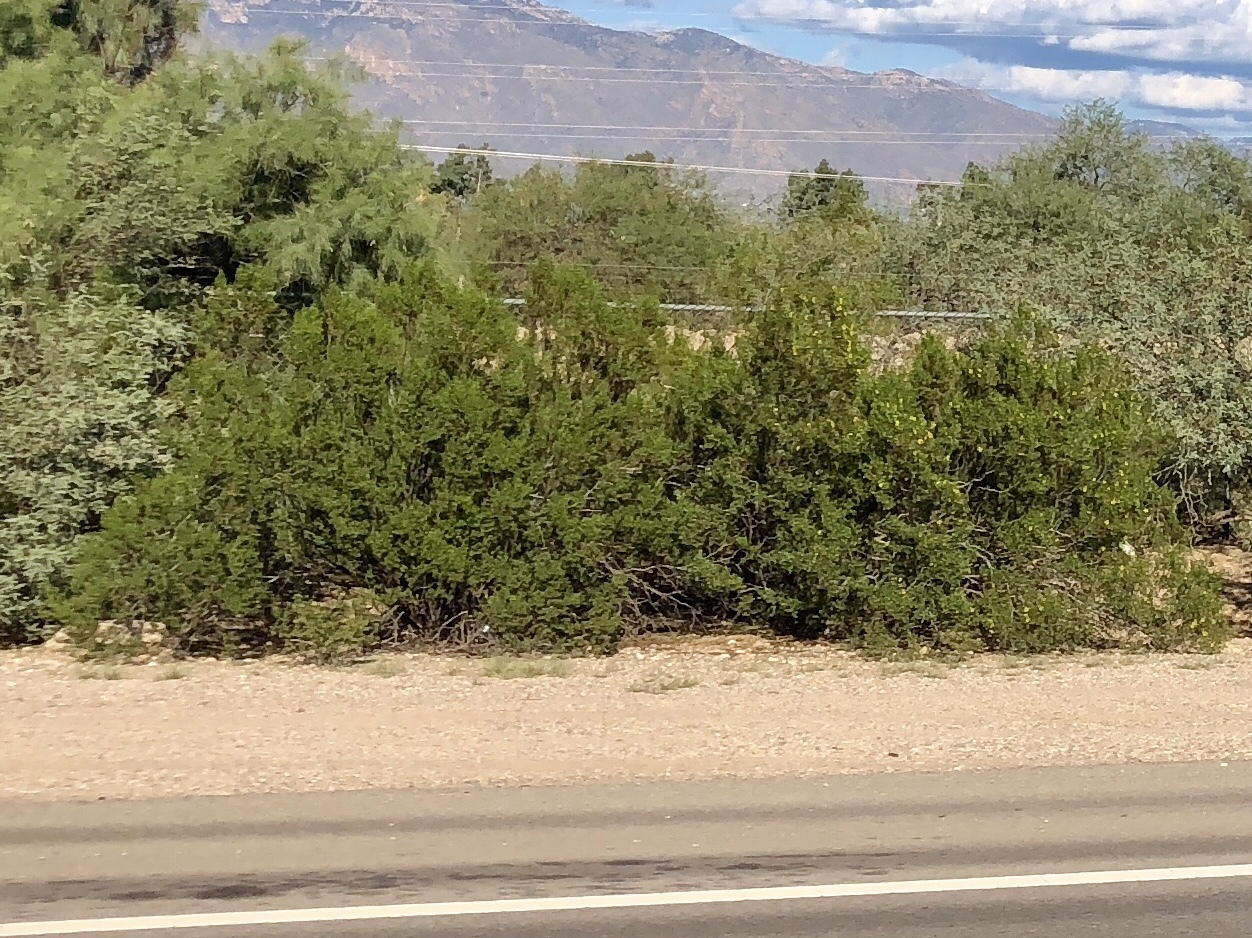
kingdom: Plantae
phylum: Tracheophyta
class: Magnoliopsida
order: Zygophyllales
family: Zygophyllaceae
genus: Larrea
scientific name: Larrea tridentata
